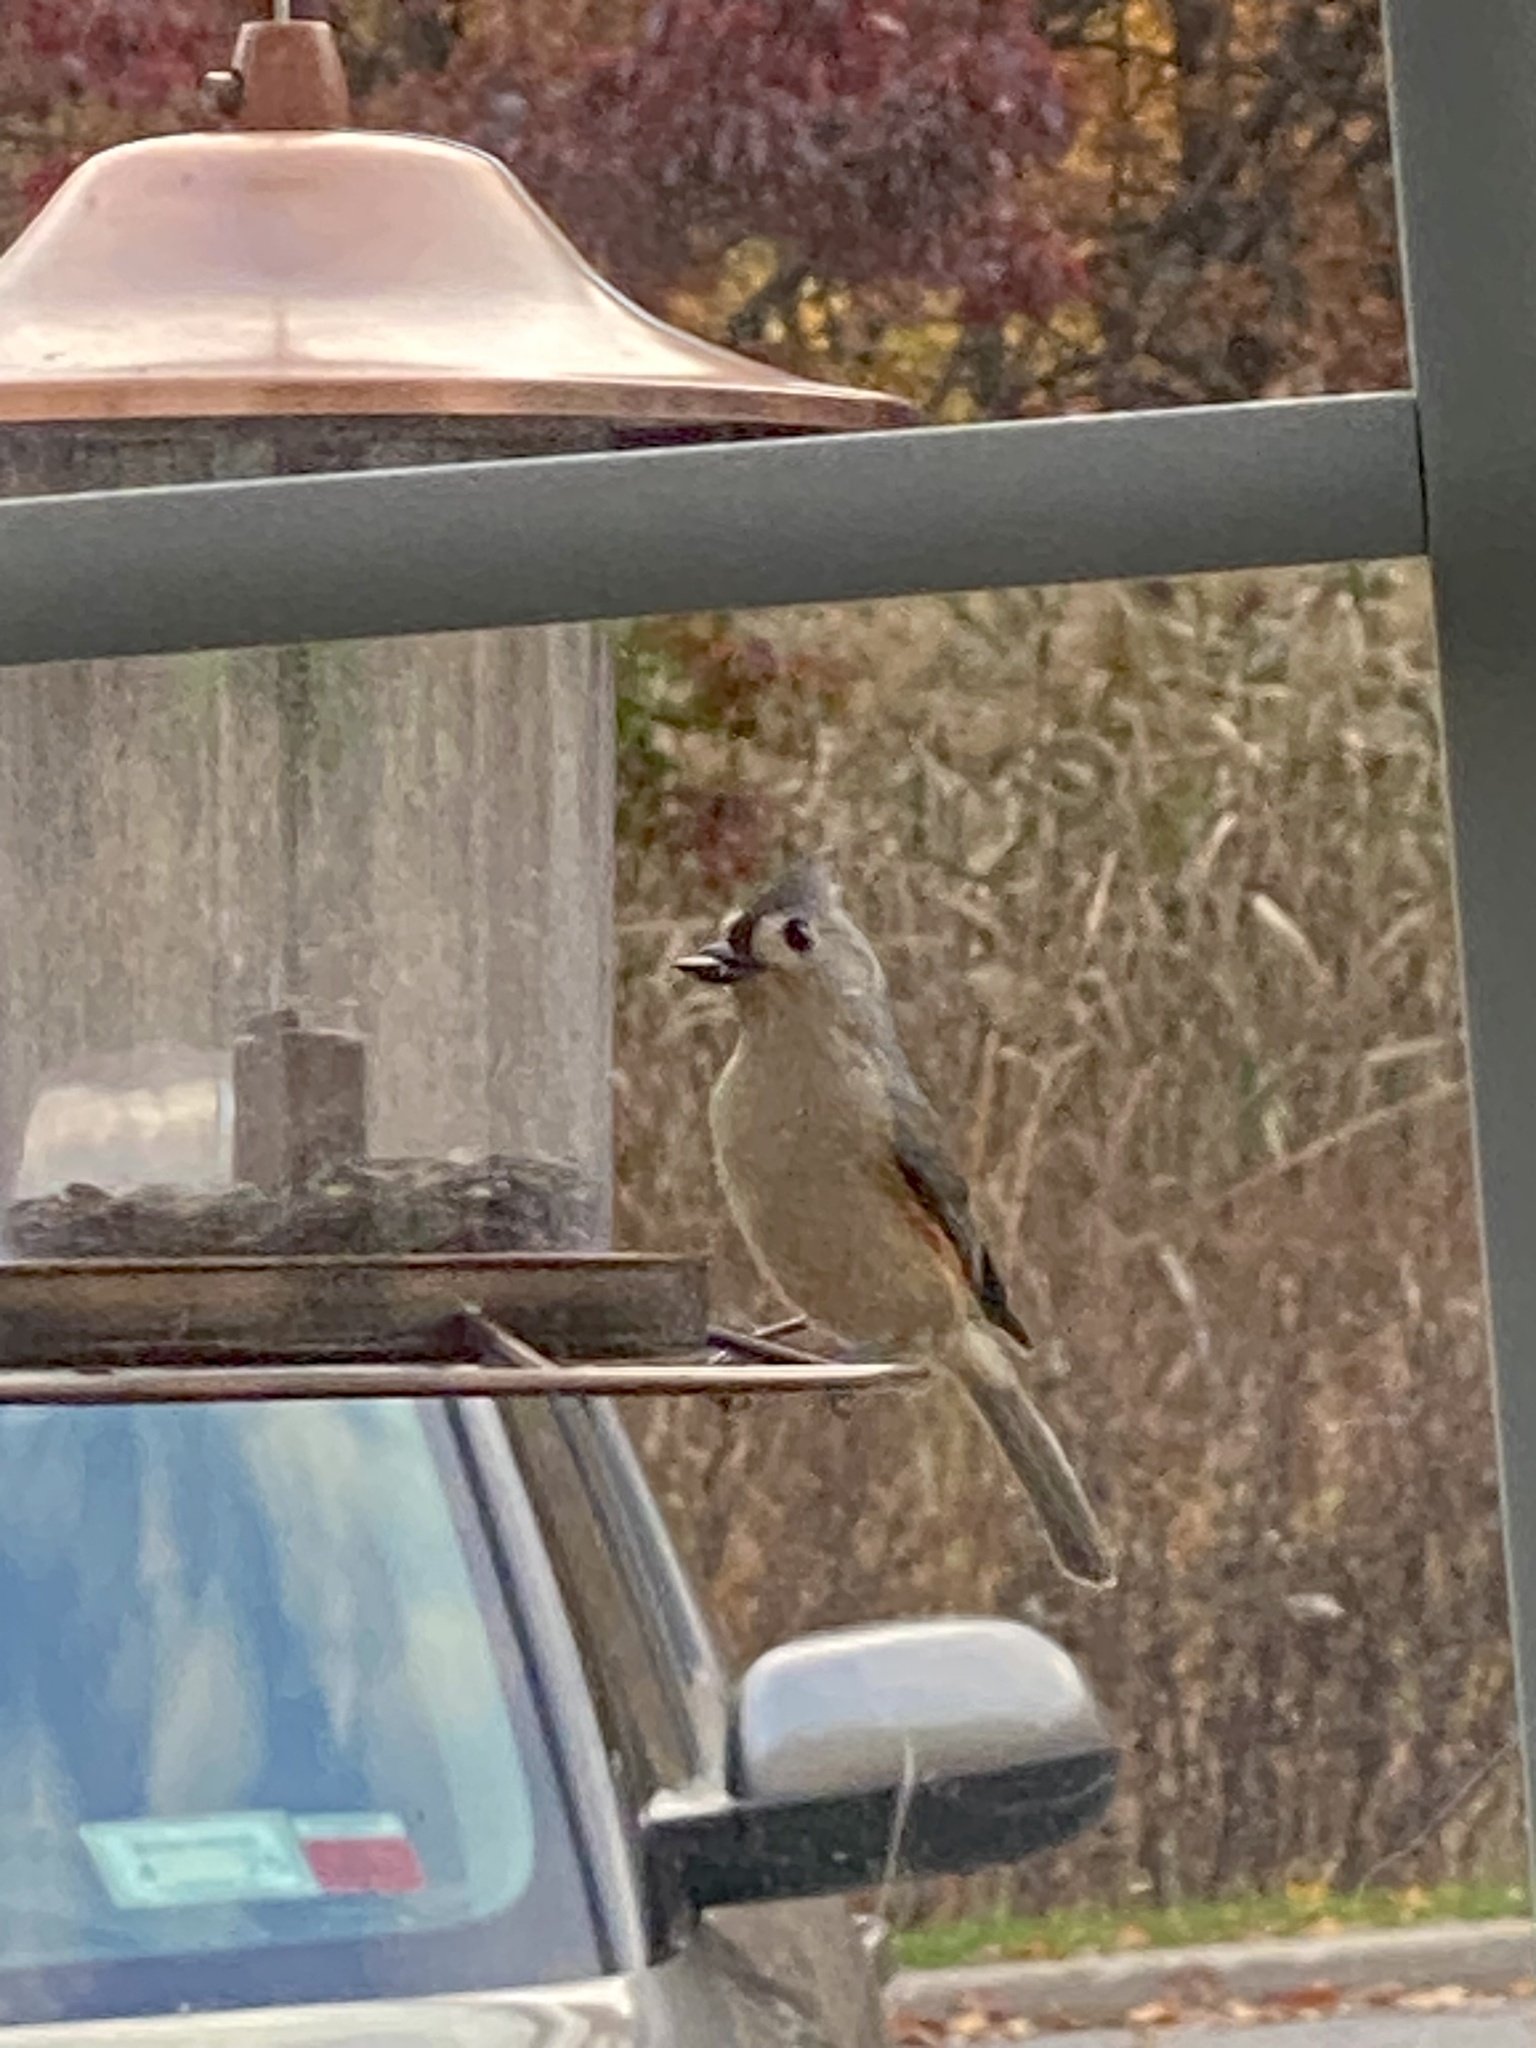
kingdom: Animalia
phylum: Chordata
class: Aves
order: Passeriformes
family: Paridae
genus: Baeolophus
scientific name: Baeolophus bicolor
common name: Tufted titmouse
